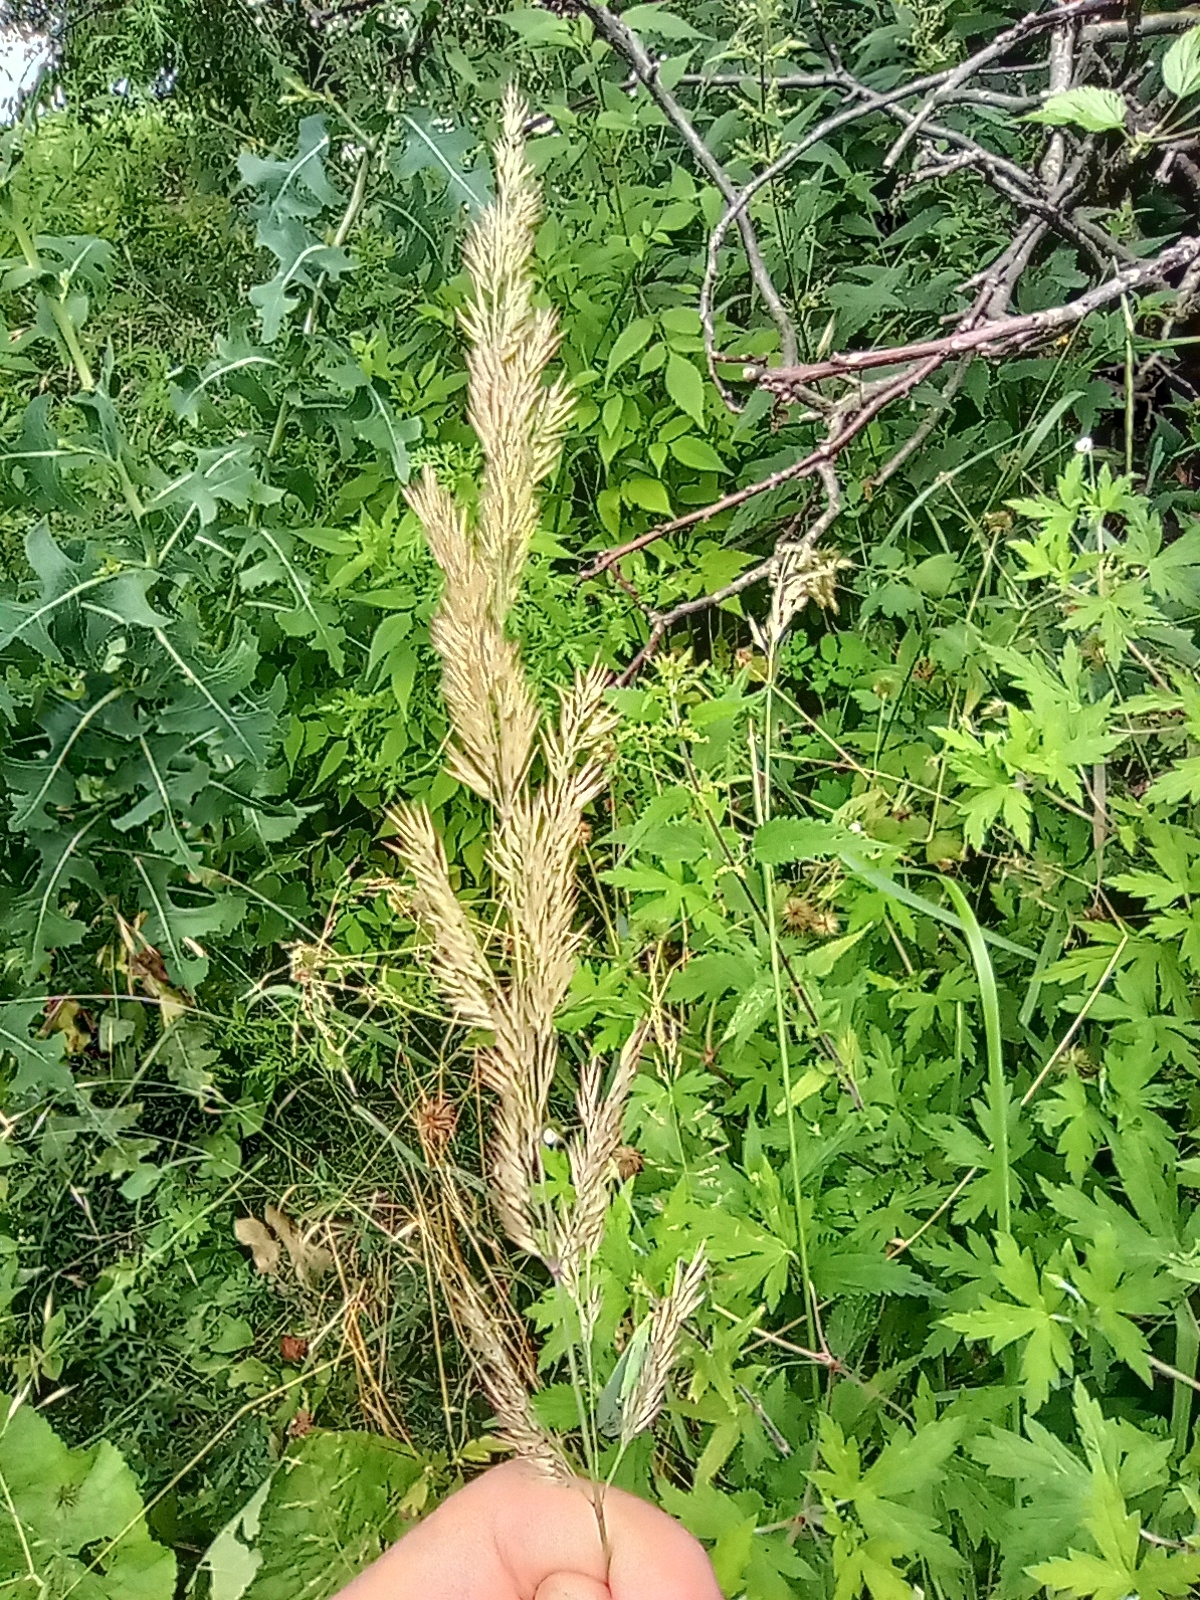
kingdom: Plantae
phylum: Tracheophyta
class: Liliopsida
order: Poales
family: Poaceae
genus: Calamagrostis
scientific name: Calamagrostis epigejos
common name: Wood small-reed
